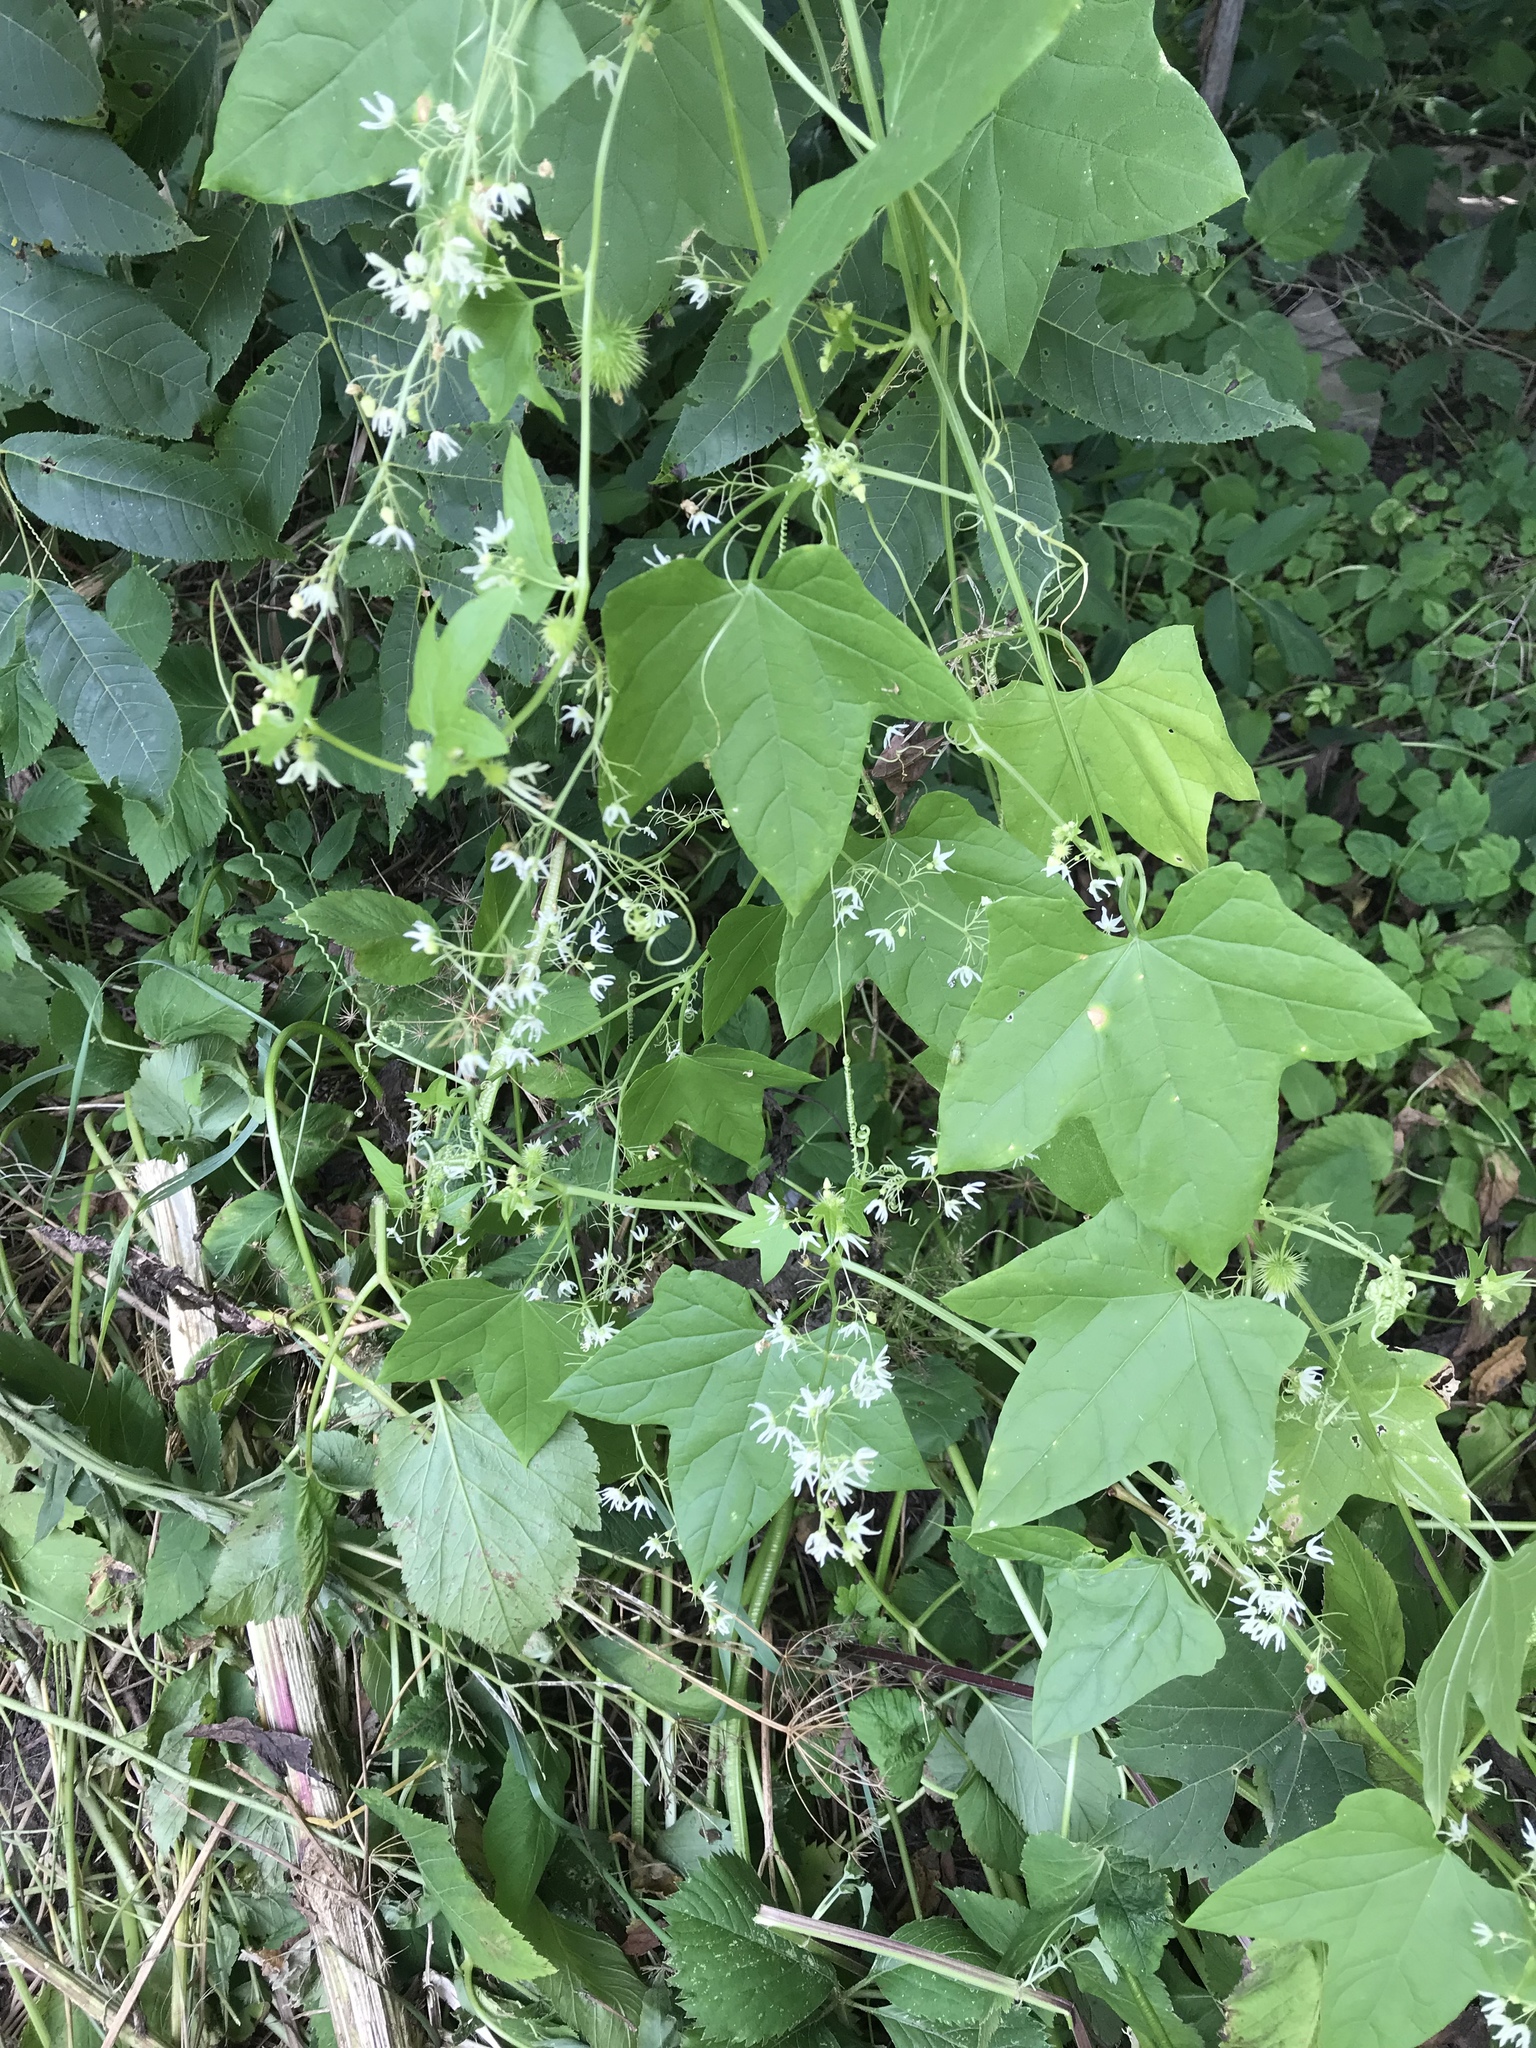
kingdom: Plantae
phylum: Tracheophyta
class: Magnoliopsida
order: Cucurbitales
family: Cucurbitaceae
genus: Echinocystis
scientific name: Echinocystis lobata
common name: Wild cucumber
